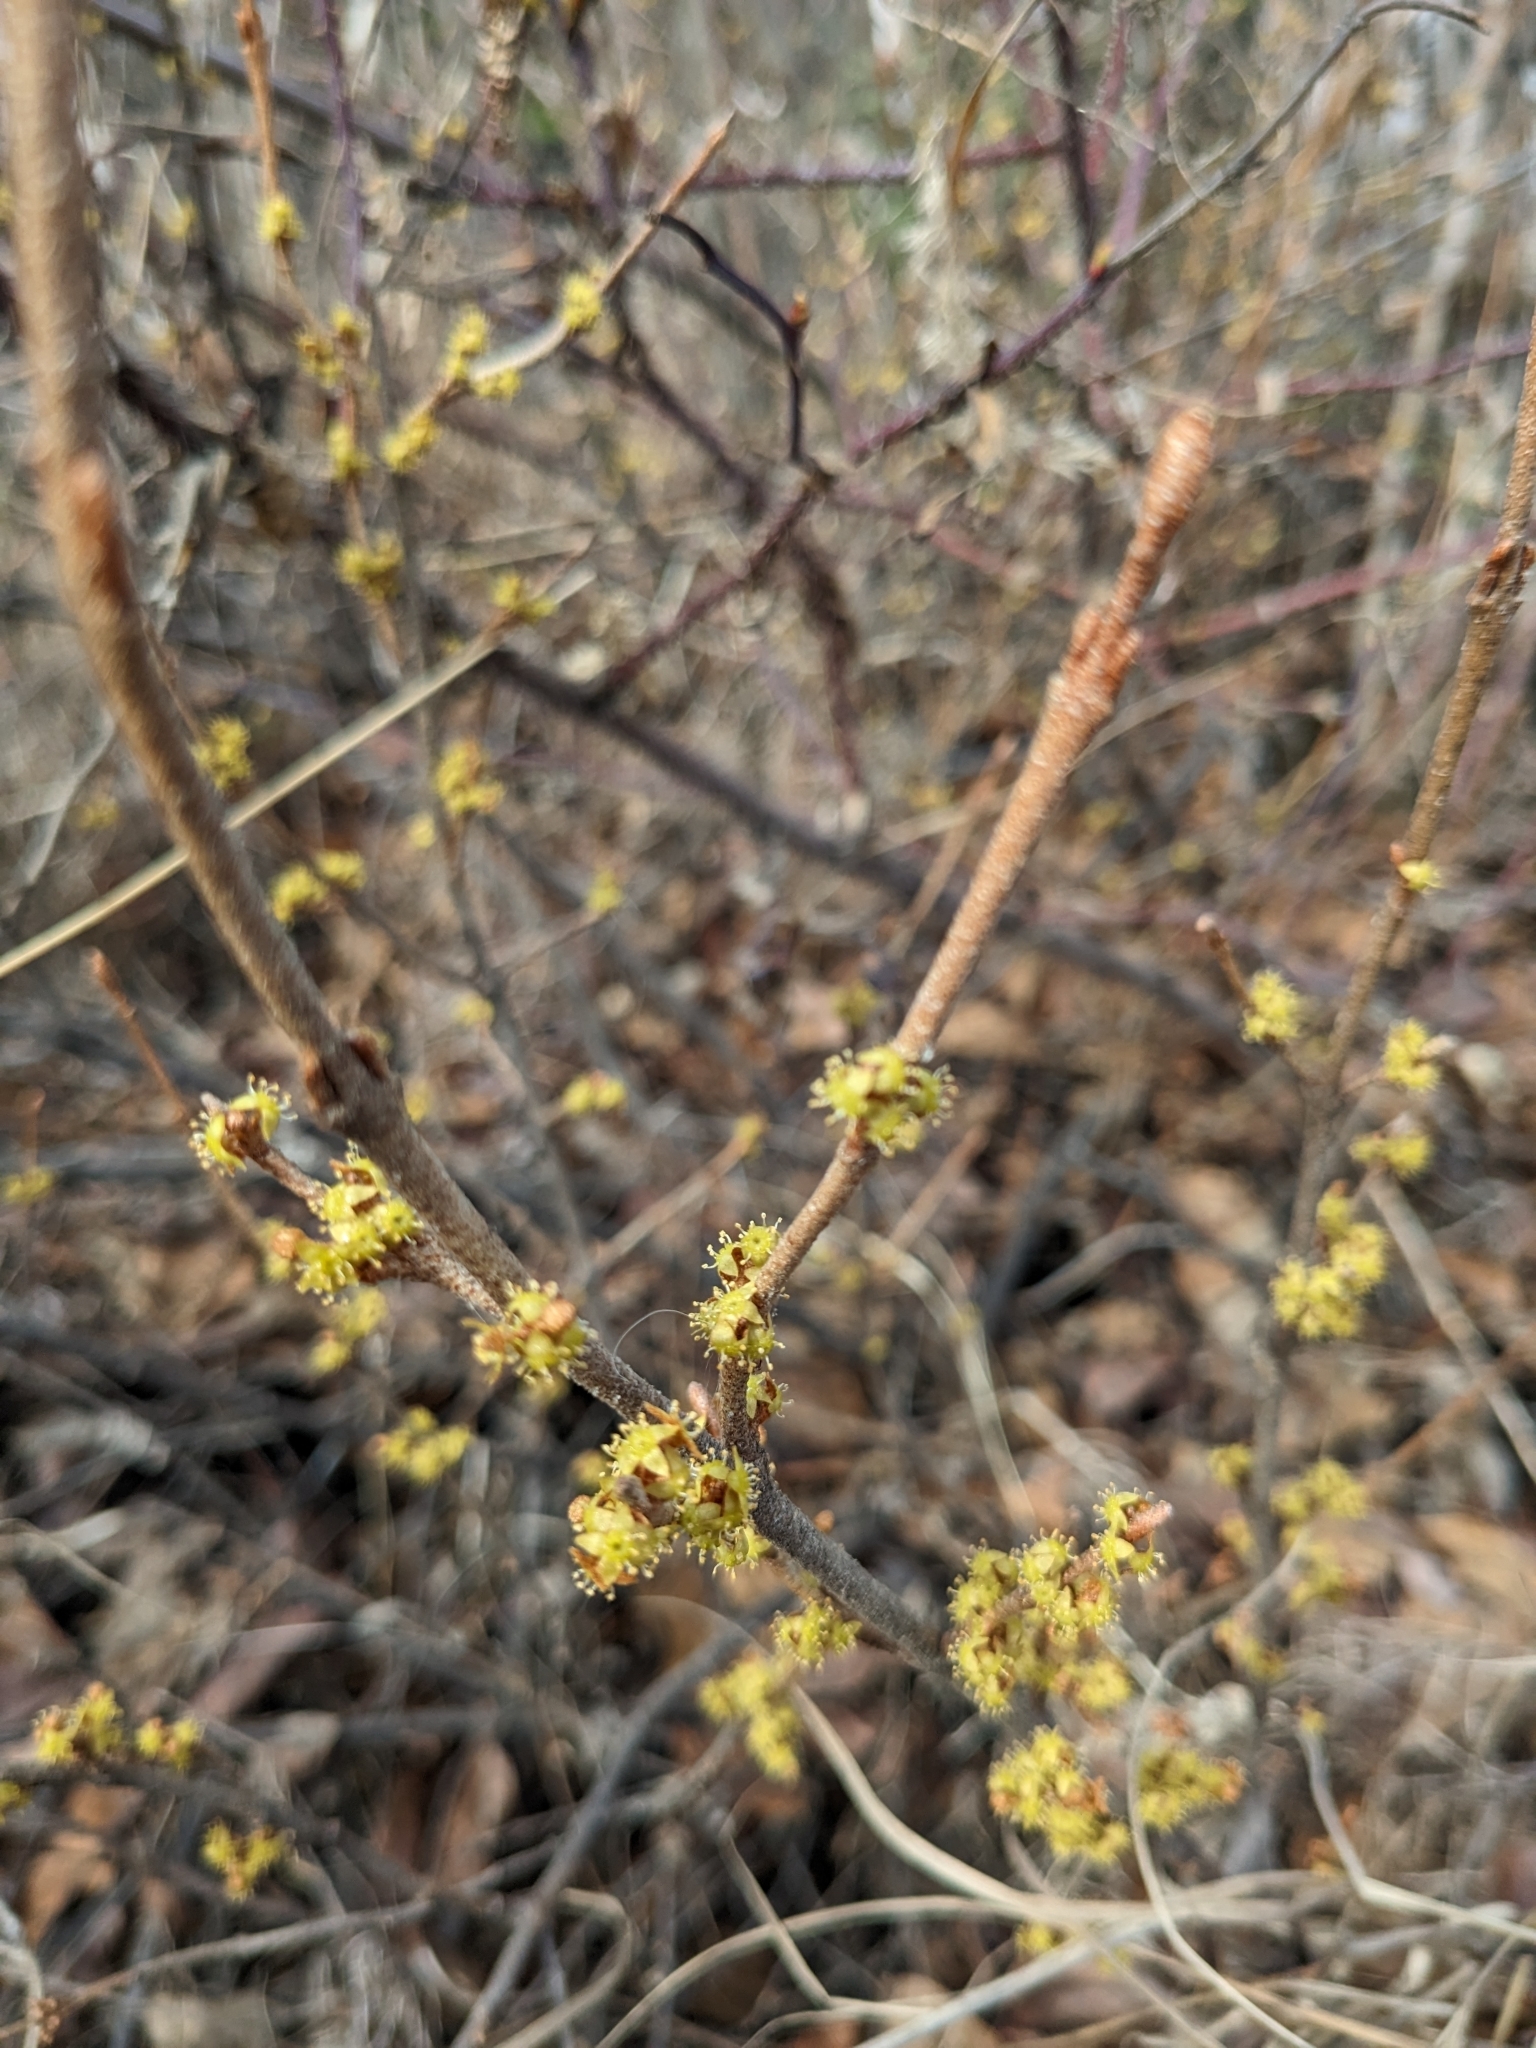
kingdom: Plantae
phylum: Tracheophyta
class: Magnoliopsida
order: Rosales
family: Elaeagnaceae
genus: Shepherdia
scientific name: Shepherdia canadensis
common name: Soapberry
